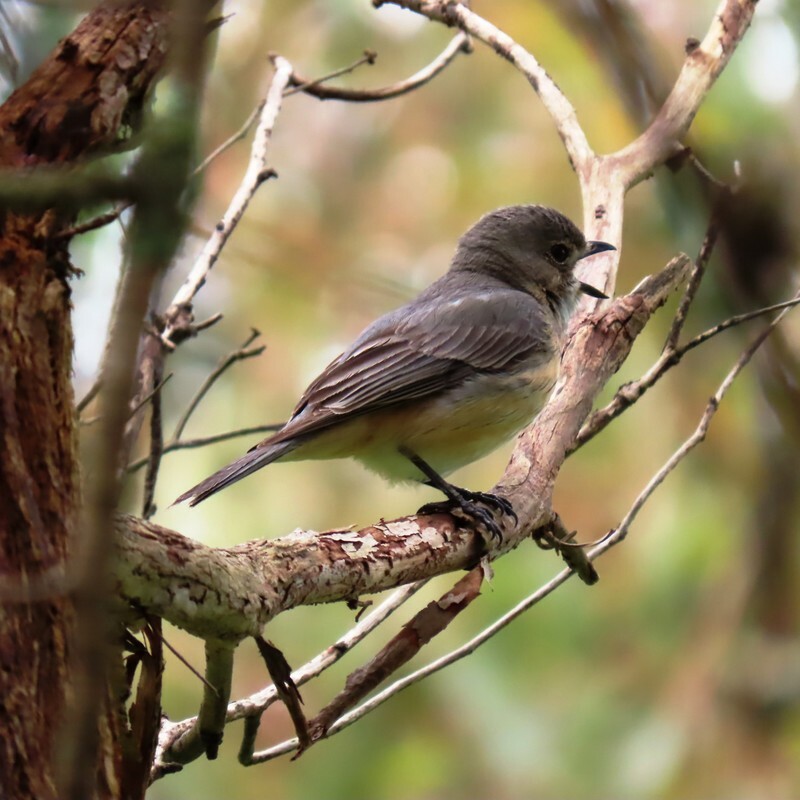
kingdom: Animalia
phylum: Chordata
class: Aves
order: Passeriformes
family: Pachycephalidae
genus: Pachycephala
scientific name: Pachycephala rufiventris
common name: Rufous whistler
